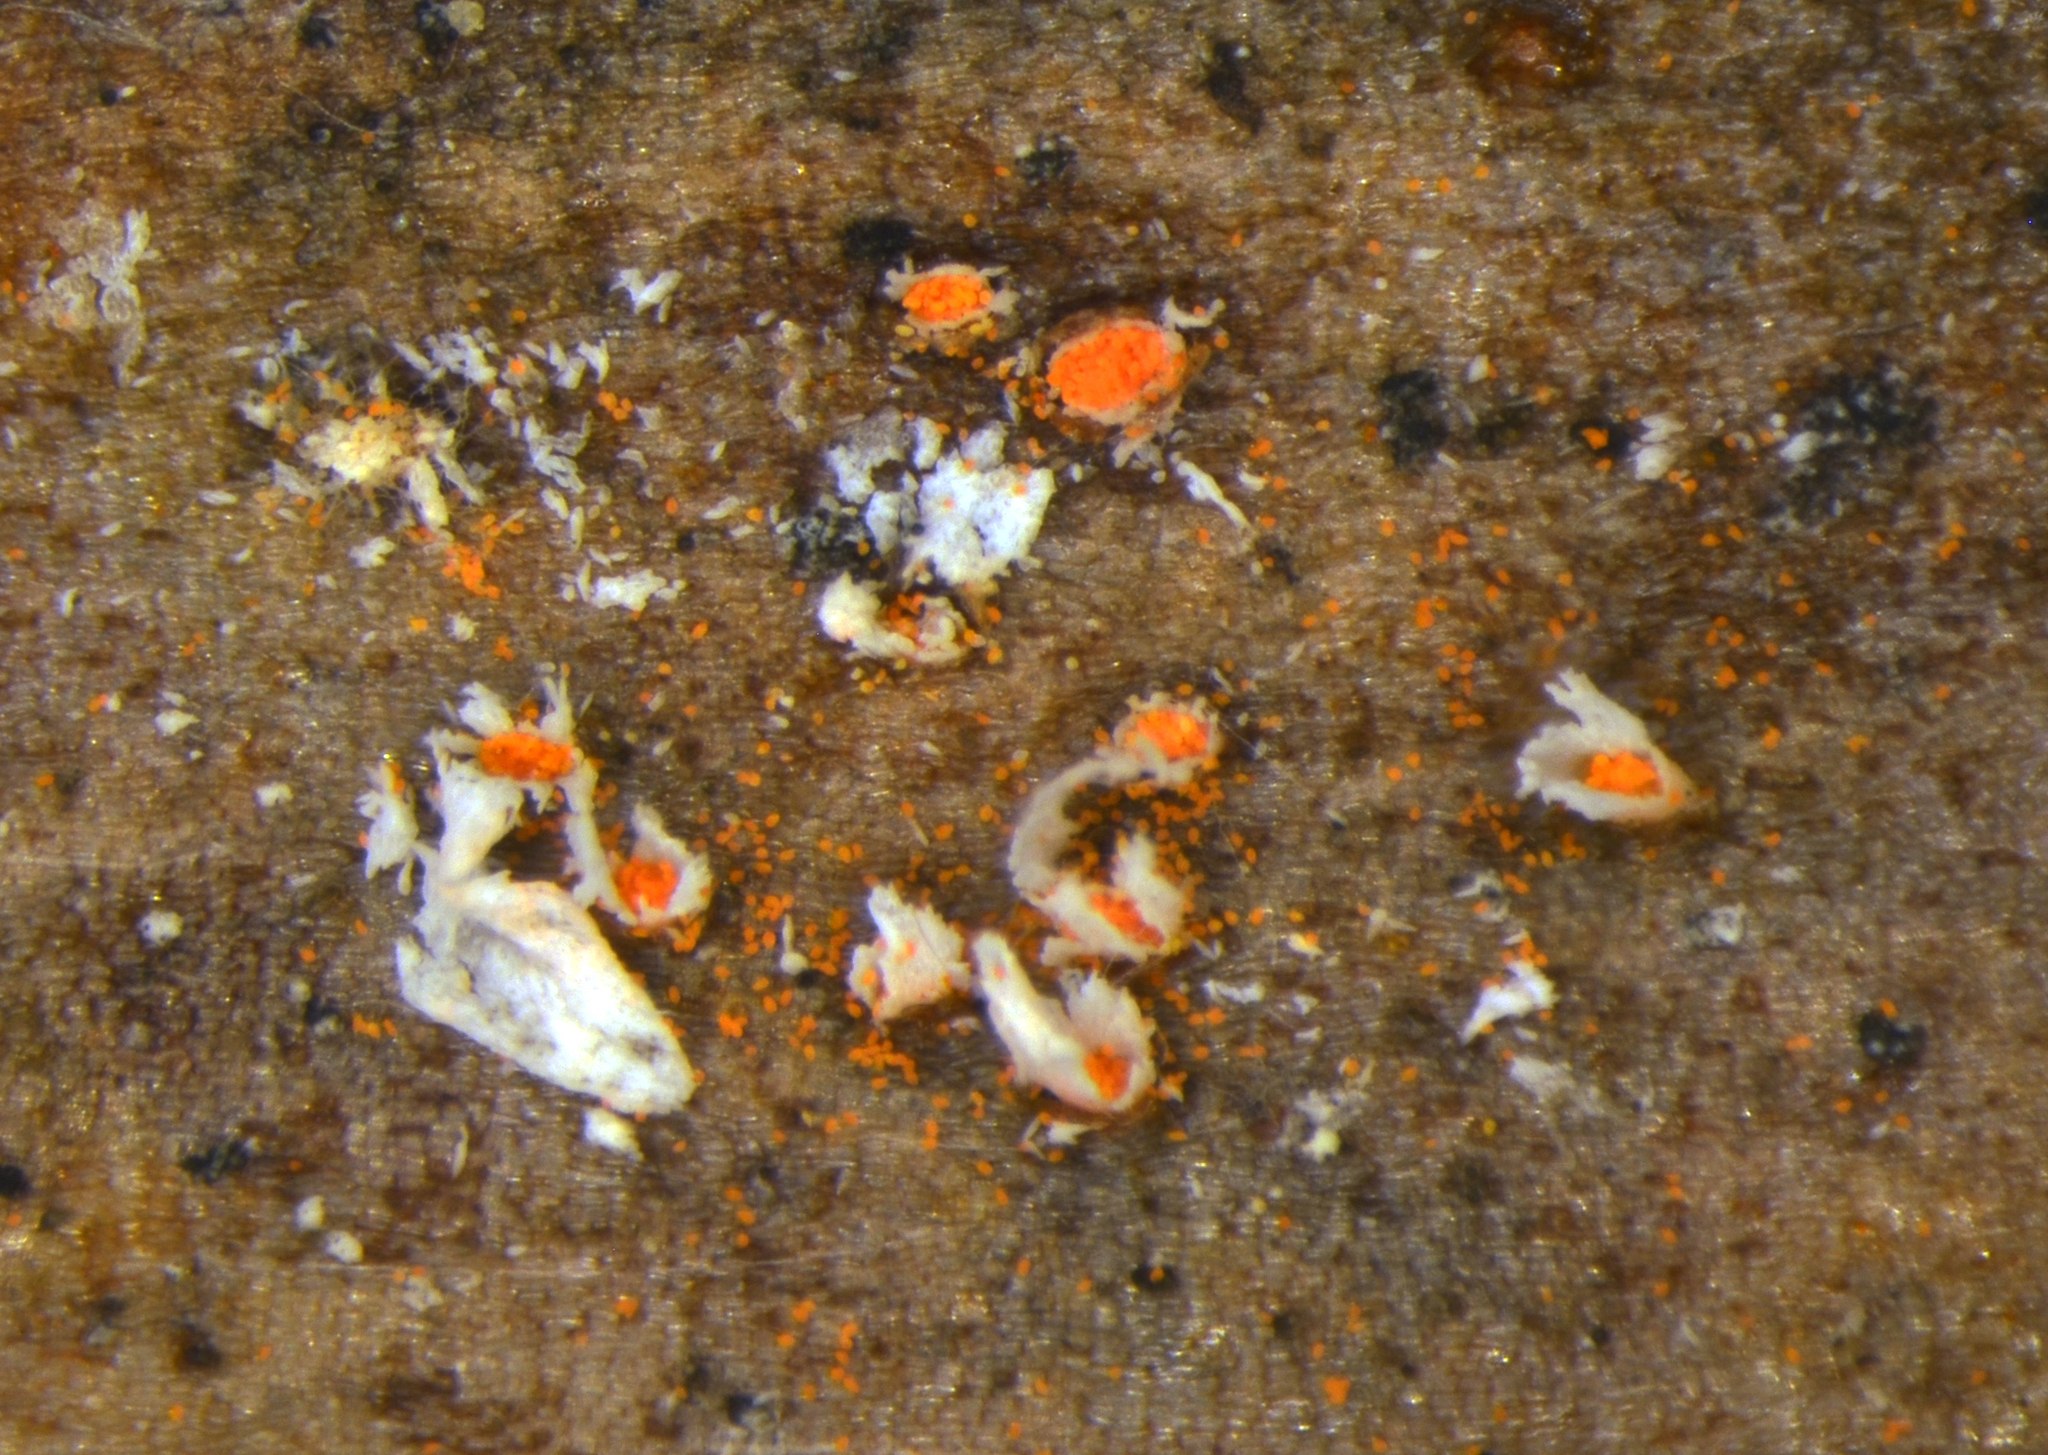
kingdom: Fungi
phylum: Basidiomycota
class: Pucciniomycetes
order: Pucciniales
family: Pucciniaceae
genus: Aecidium
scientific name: Aecidium celmisiae-discoloris
